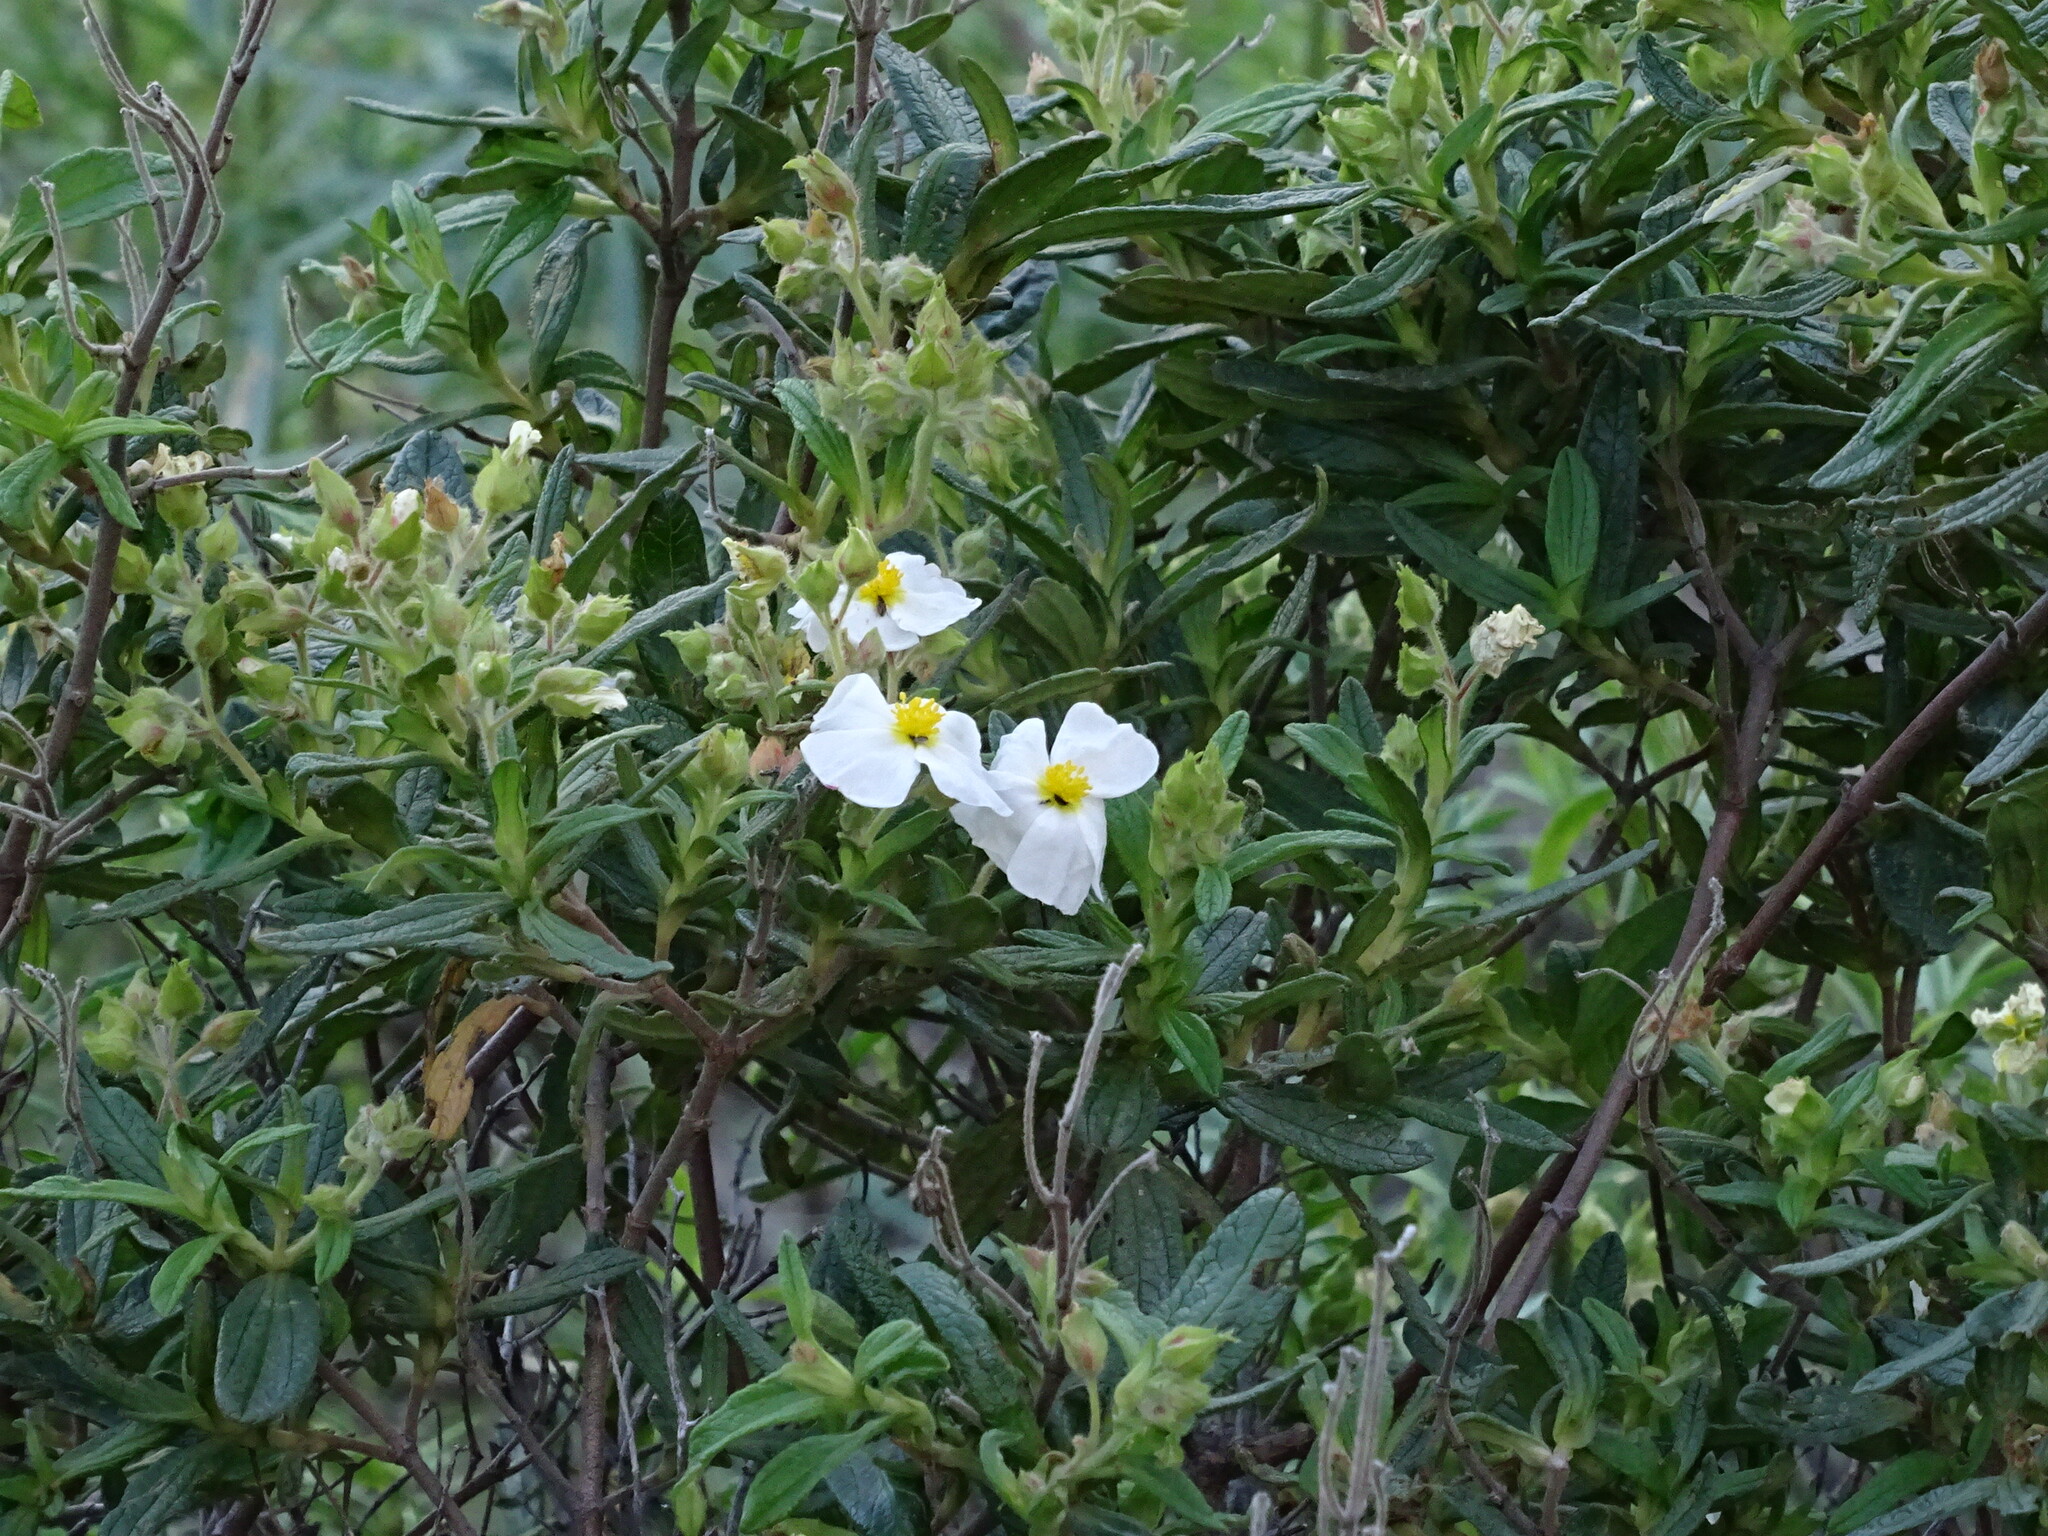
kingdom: Plantae
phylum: Tracheophyta
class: Magnoliopsida
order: Malvales
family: Cistaceae
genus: Cistus
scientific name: Cistus monspeliensis
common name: Montpelier cistus
